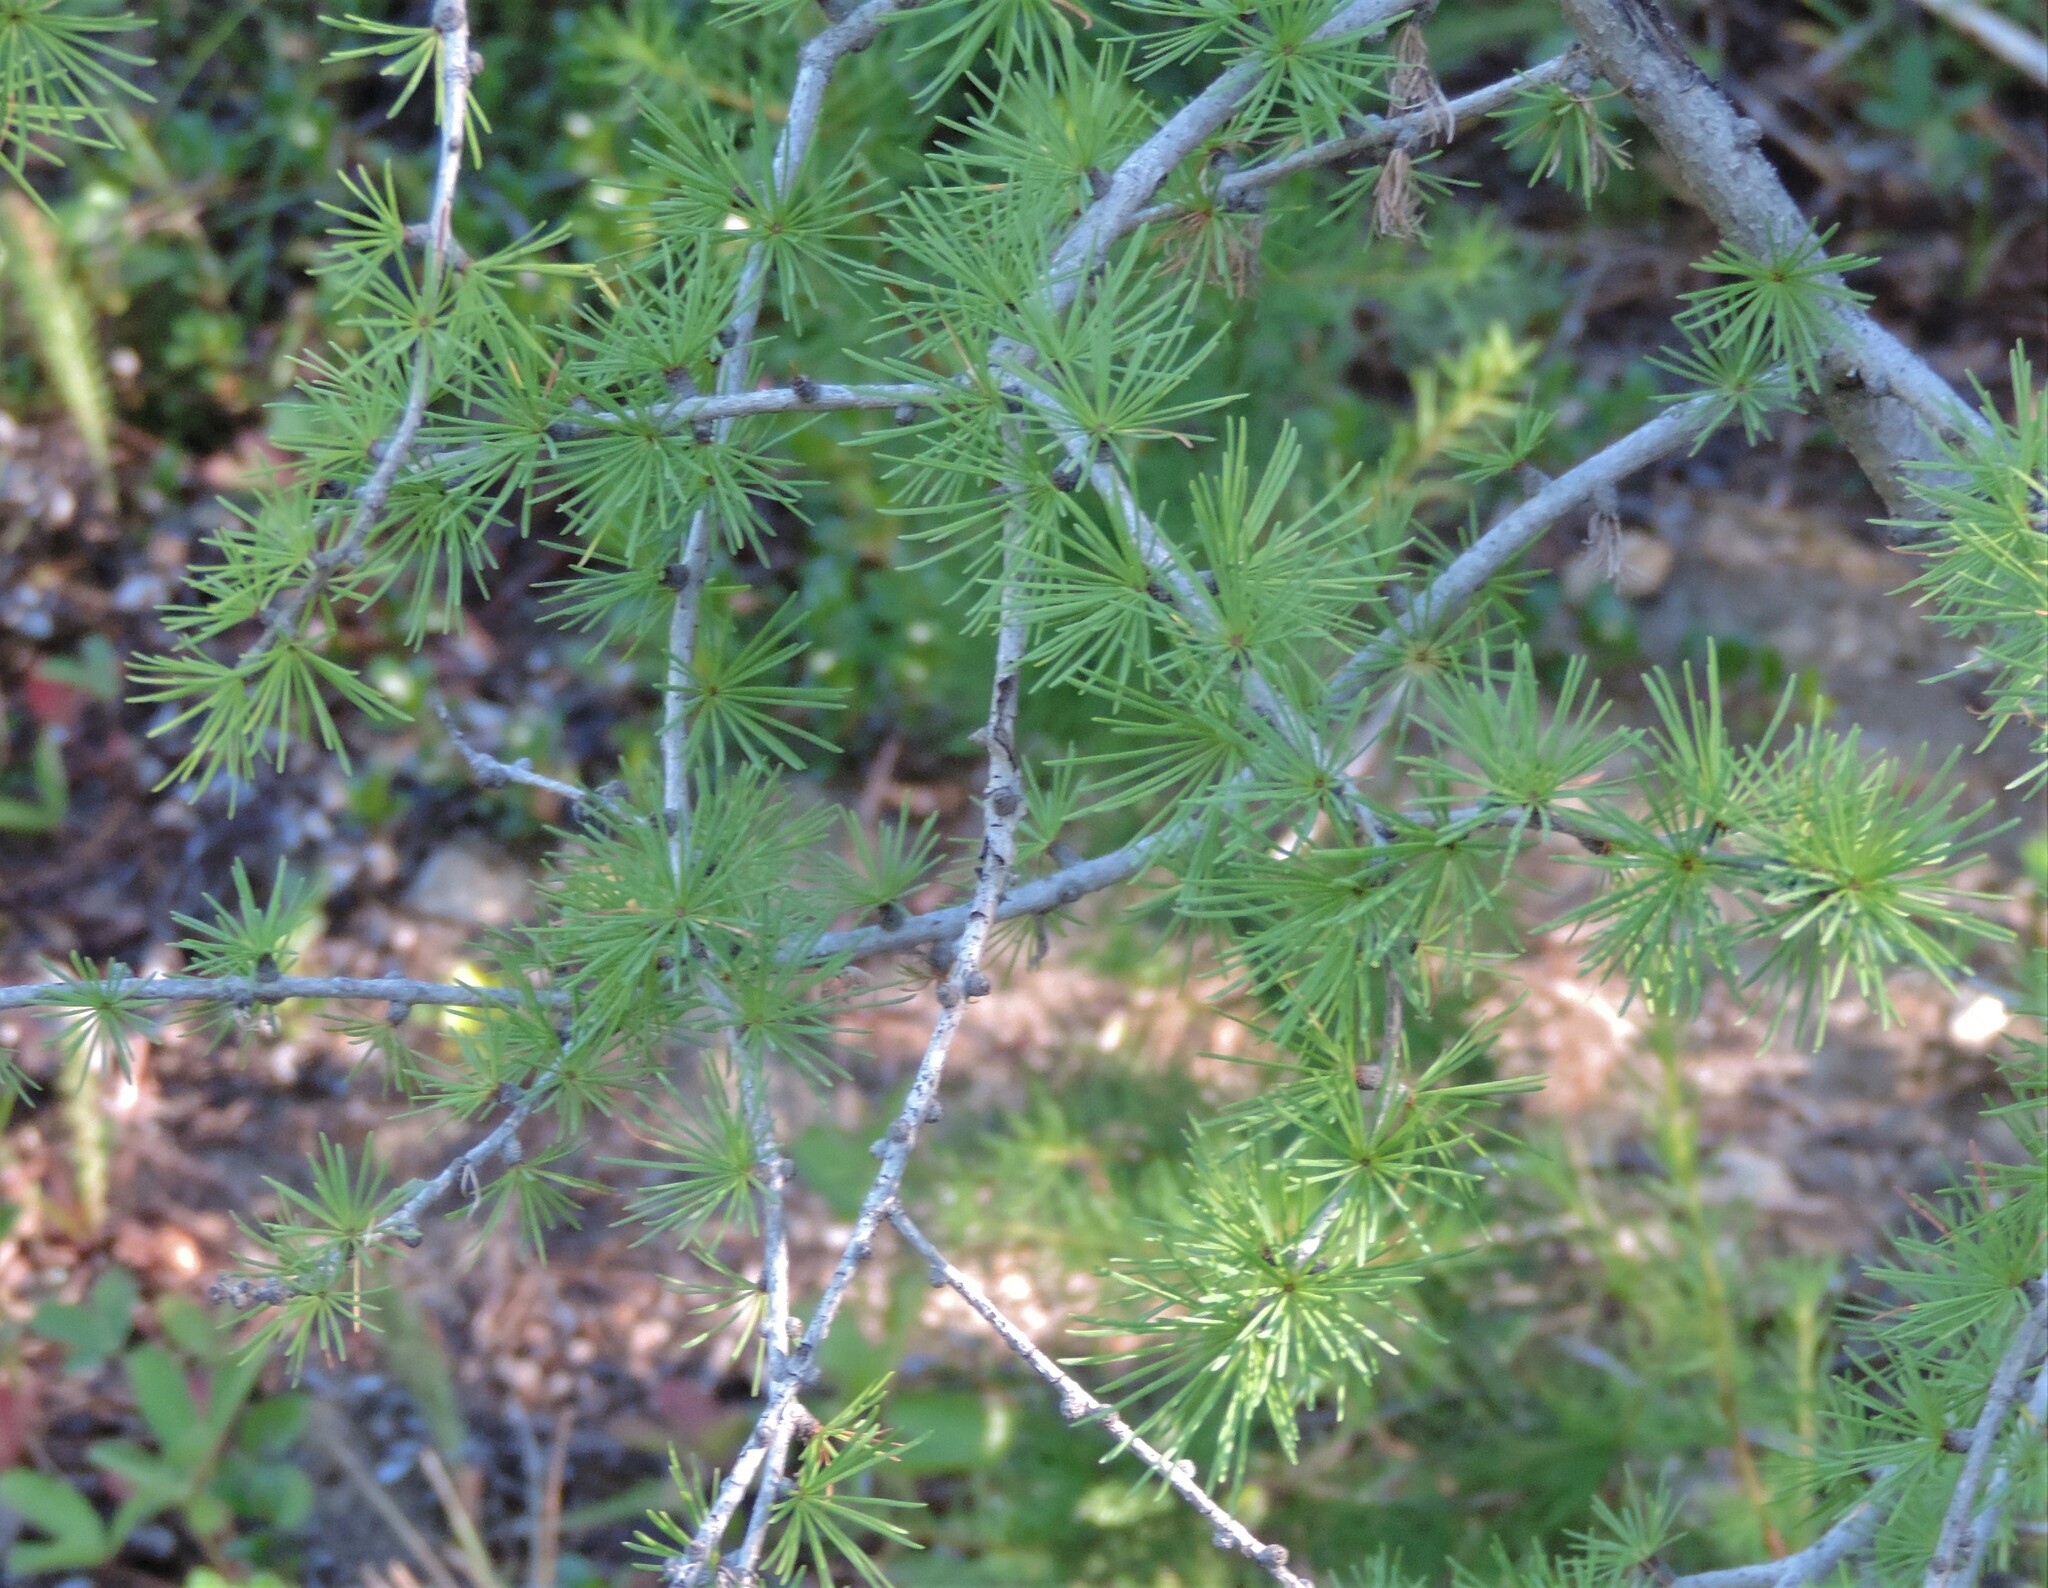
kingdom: Plantae
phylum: Tracheophyta
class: Pinopsida
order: Pinales
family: Pinaceae
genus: Larix
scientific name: Larix occidentalis
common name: Western larch
